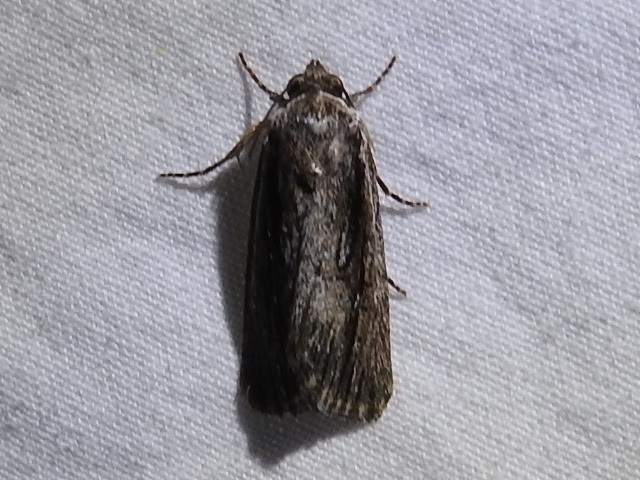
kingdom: Animalia
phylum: Arthropoda
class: Insecta
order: Lepidoptera
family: Noctuidae
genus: Sympistis
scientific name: Sympistis atricollaris
